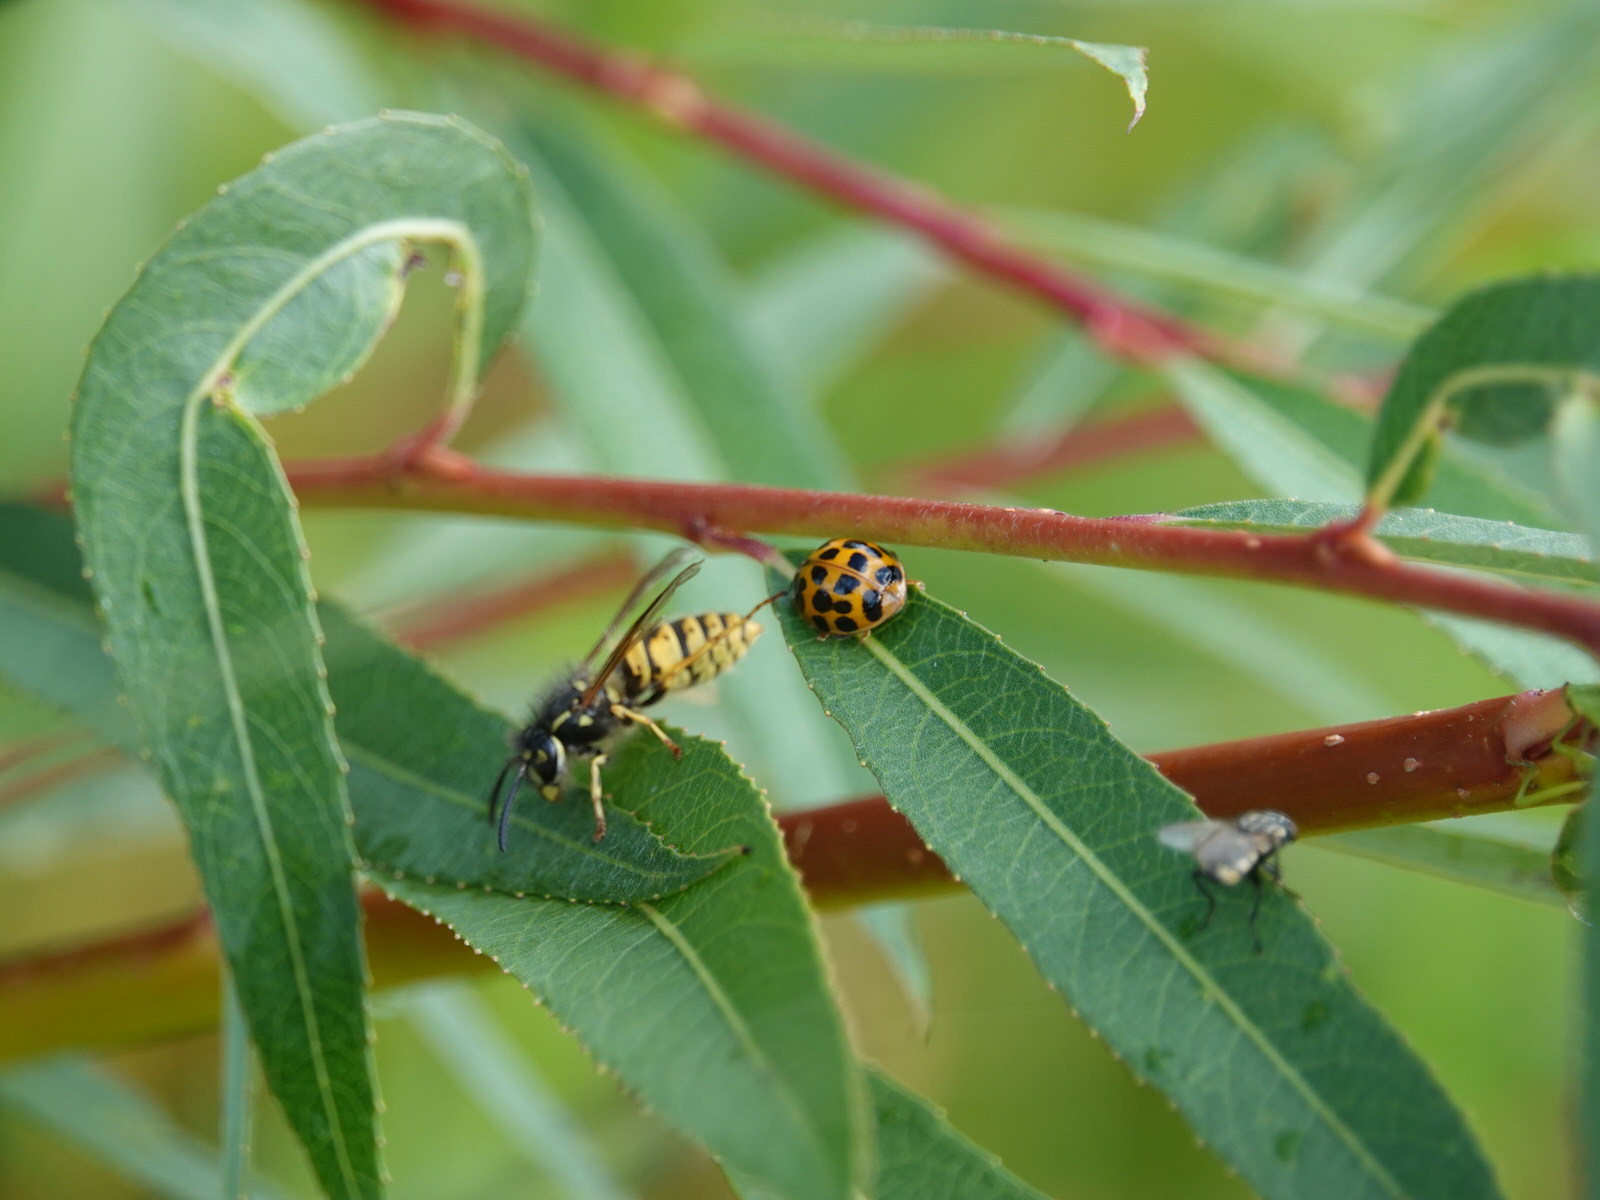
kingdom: Animalia
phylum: Arthropoda
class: Insecta
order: Coleoptera
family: Coccinellidae
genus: Harmonia
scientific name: Harmonia axyridis
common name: Harlequin ladybird
